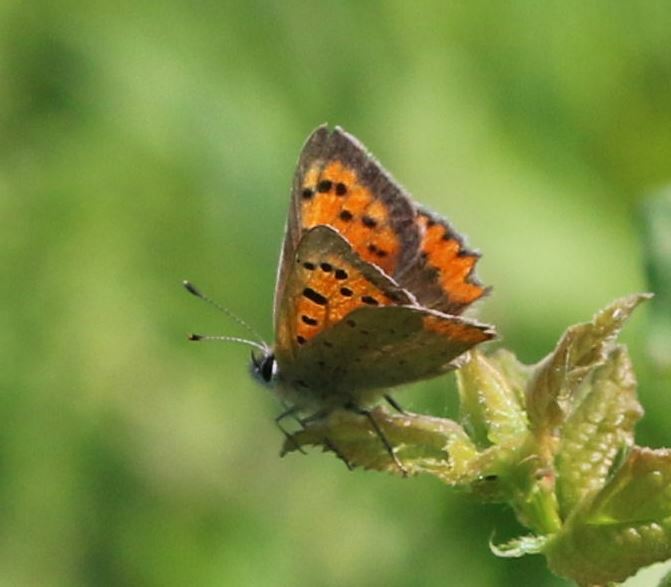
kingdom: Animalia
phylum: Arthropoda
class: Insecta
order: Lepidoptera
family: Lycaenidae
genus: Lycaena
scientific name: Lycaena phlaeas
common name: Small copper
